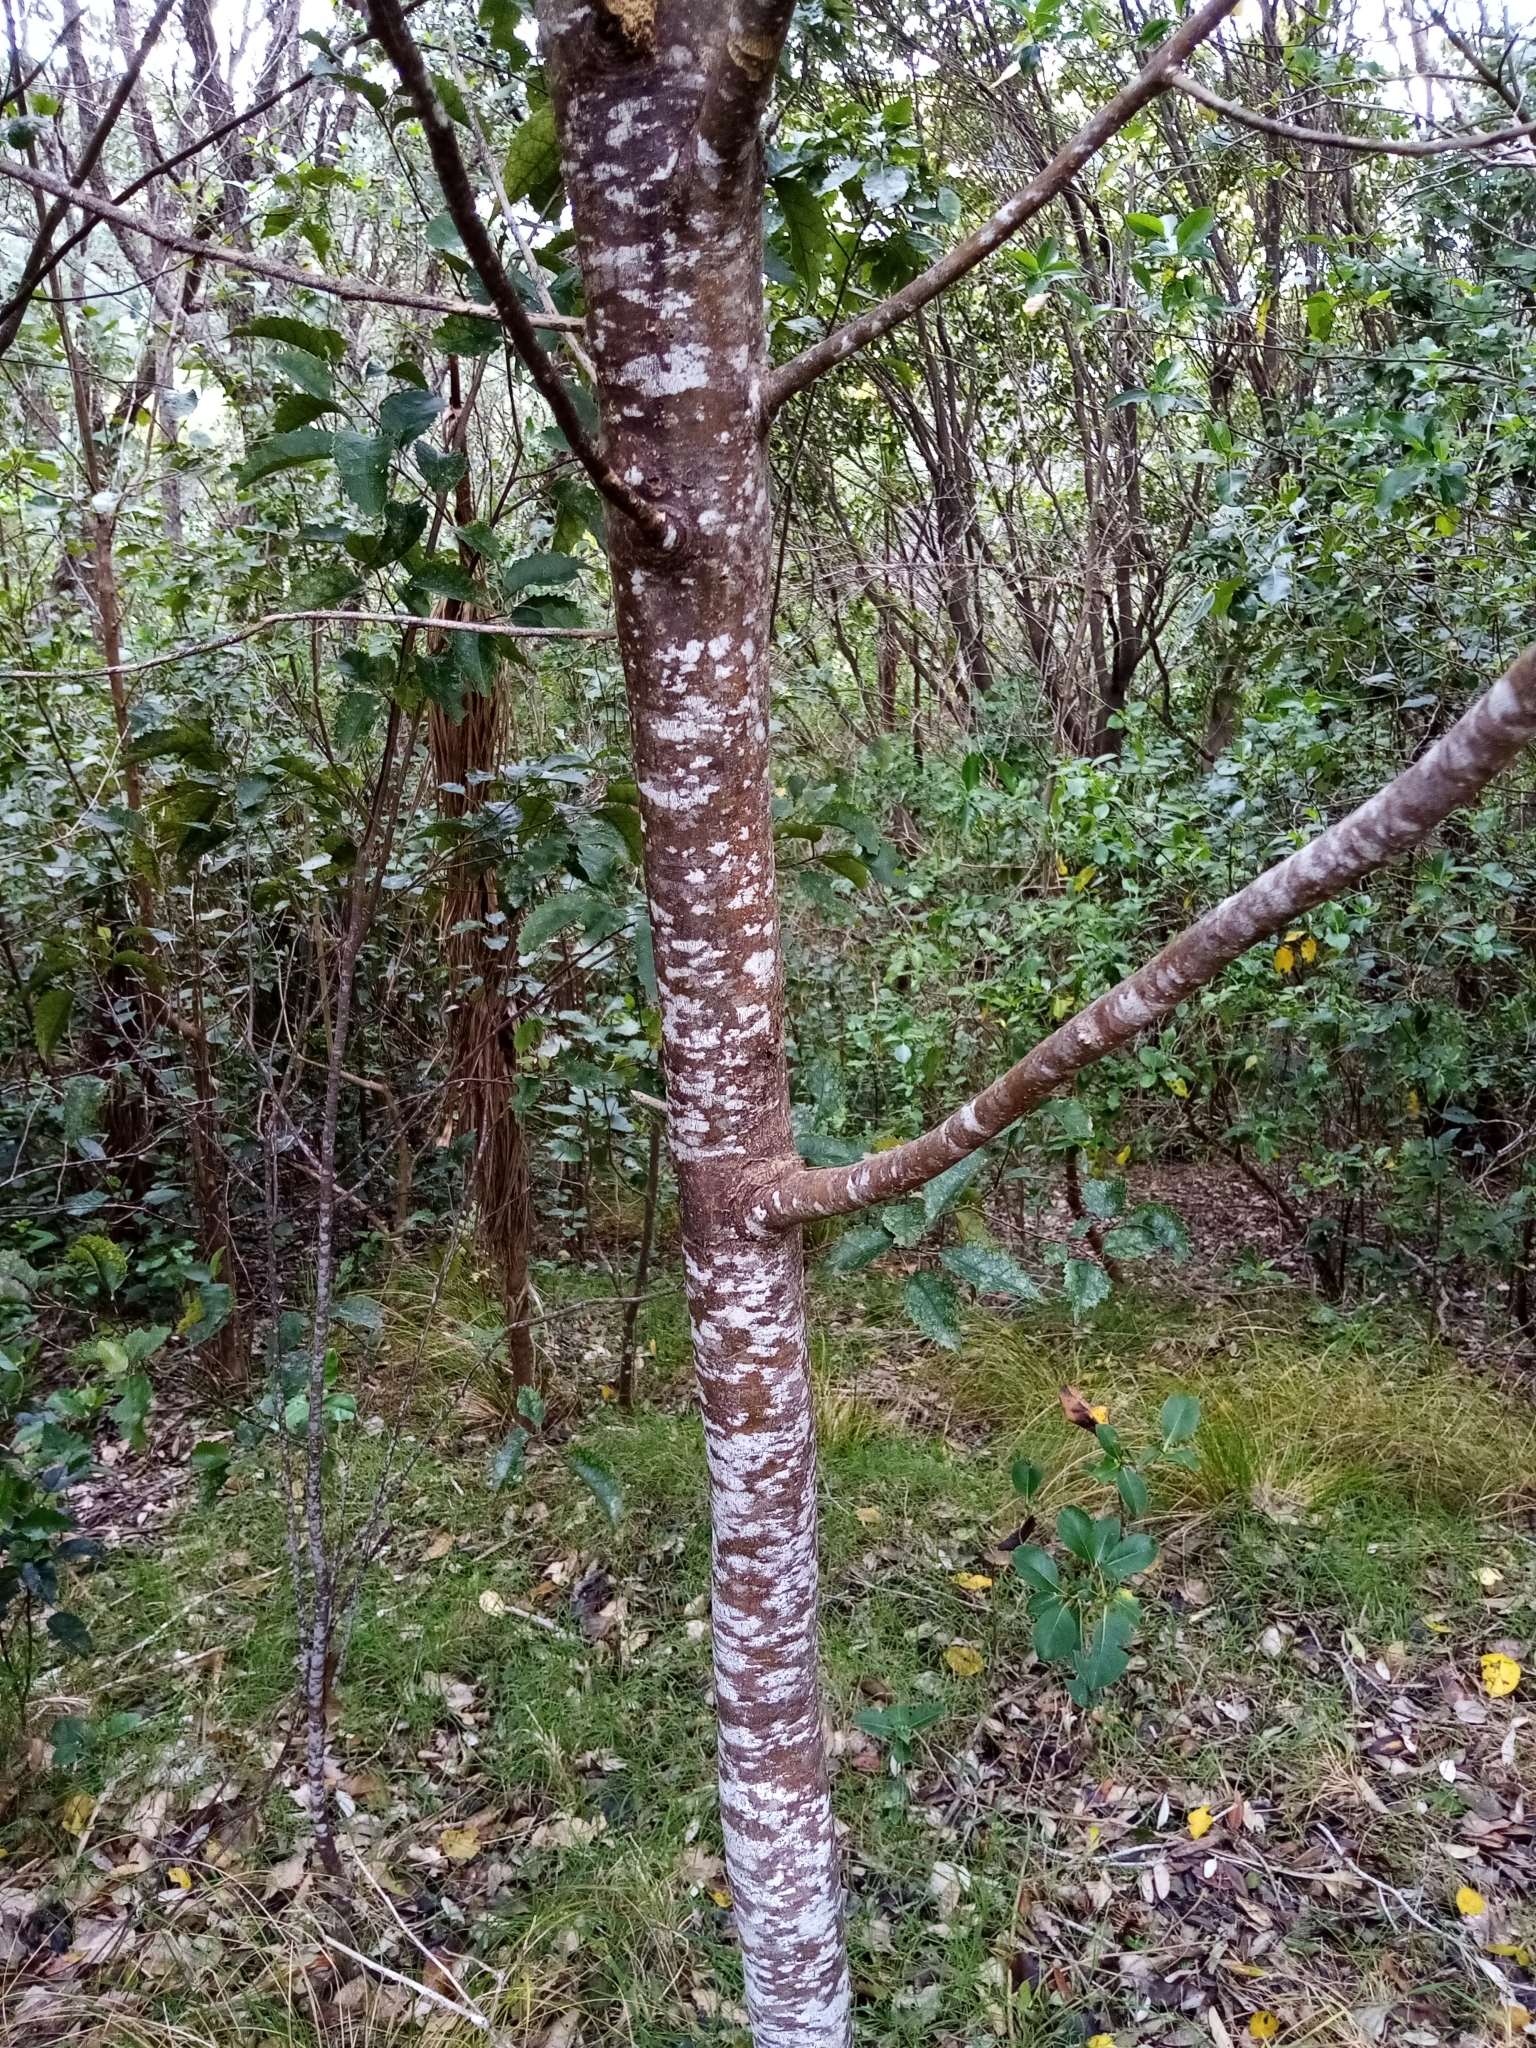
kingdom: Plantae
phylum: Tracheophyta
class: Magnoliopsida
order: Malvales
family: Malvaceae
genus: Hoheria
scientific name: Hoheria populnea
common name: Lacebark
